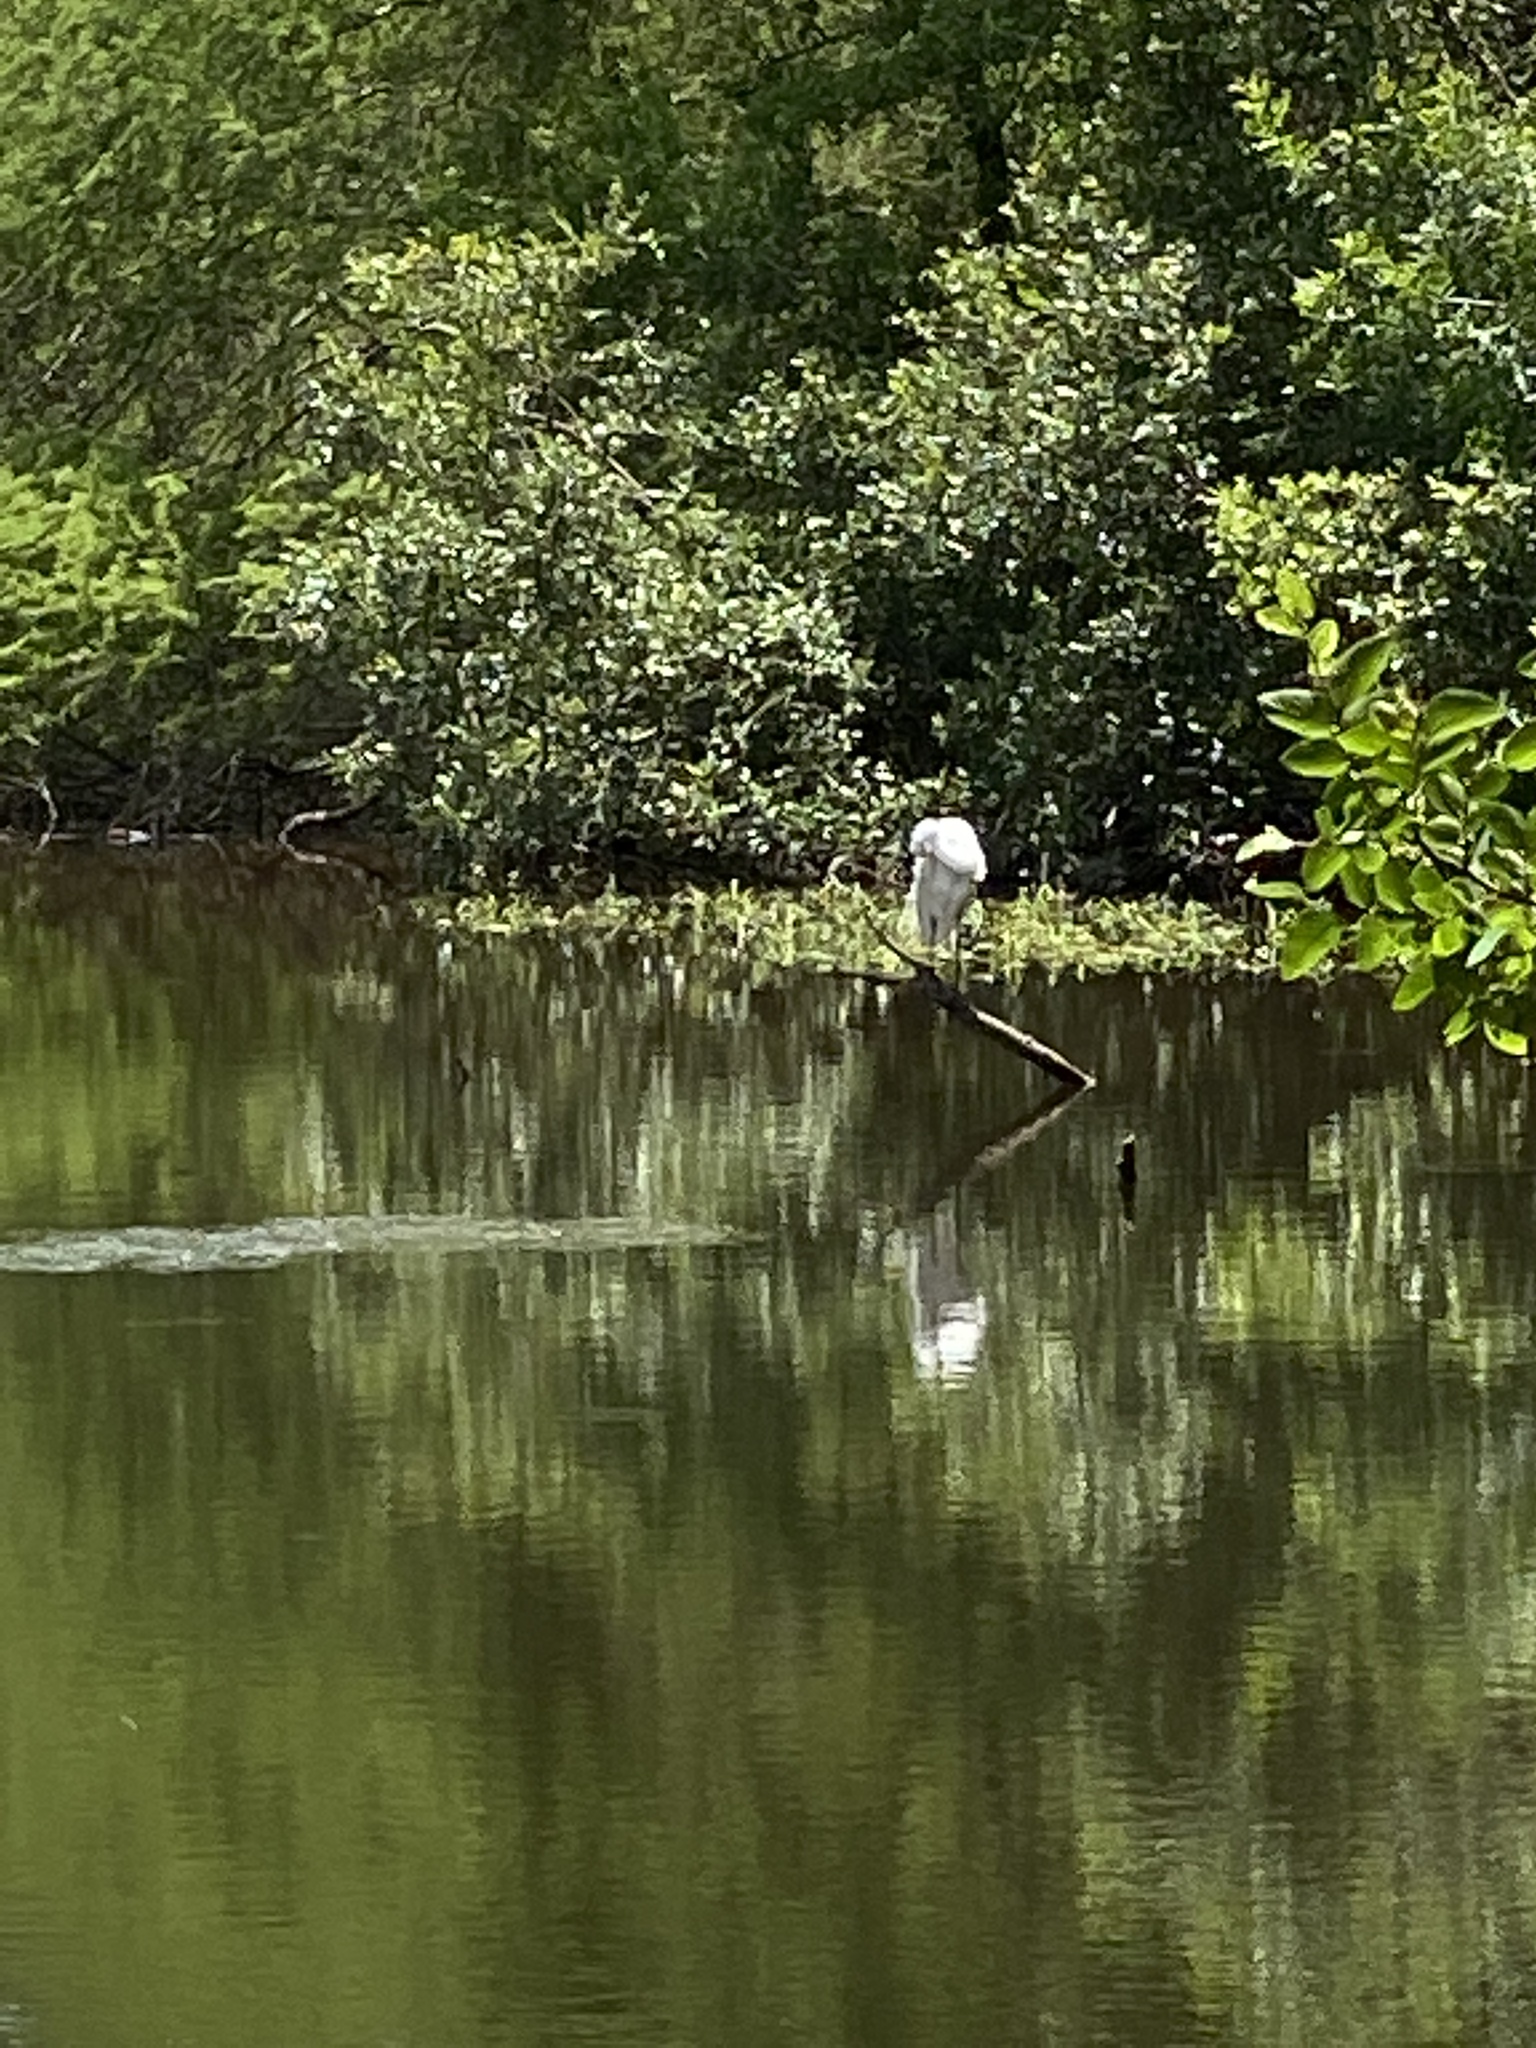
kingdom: Animalia
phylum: Chordata
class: Aves
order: Pelecaniformes
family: Ardeidae
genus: Ardea
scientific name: Ardea alba
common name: Great egret
